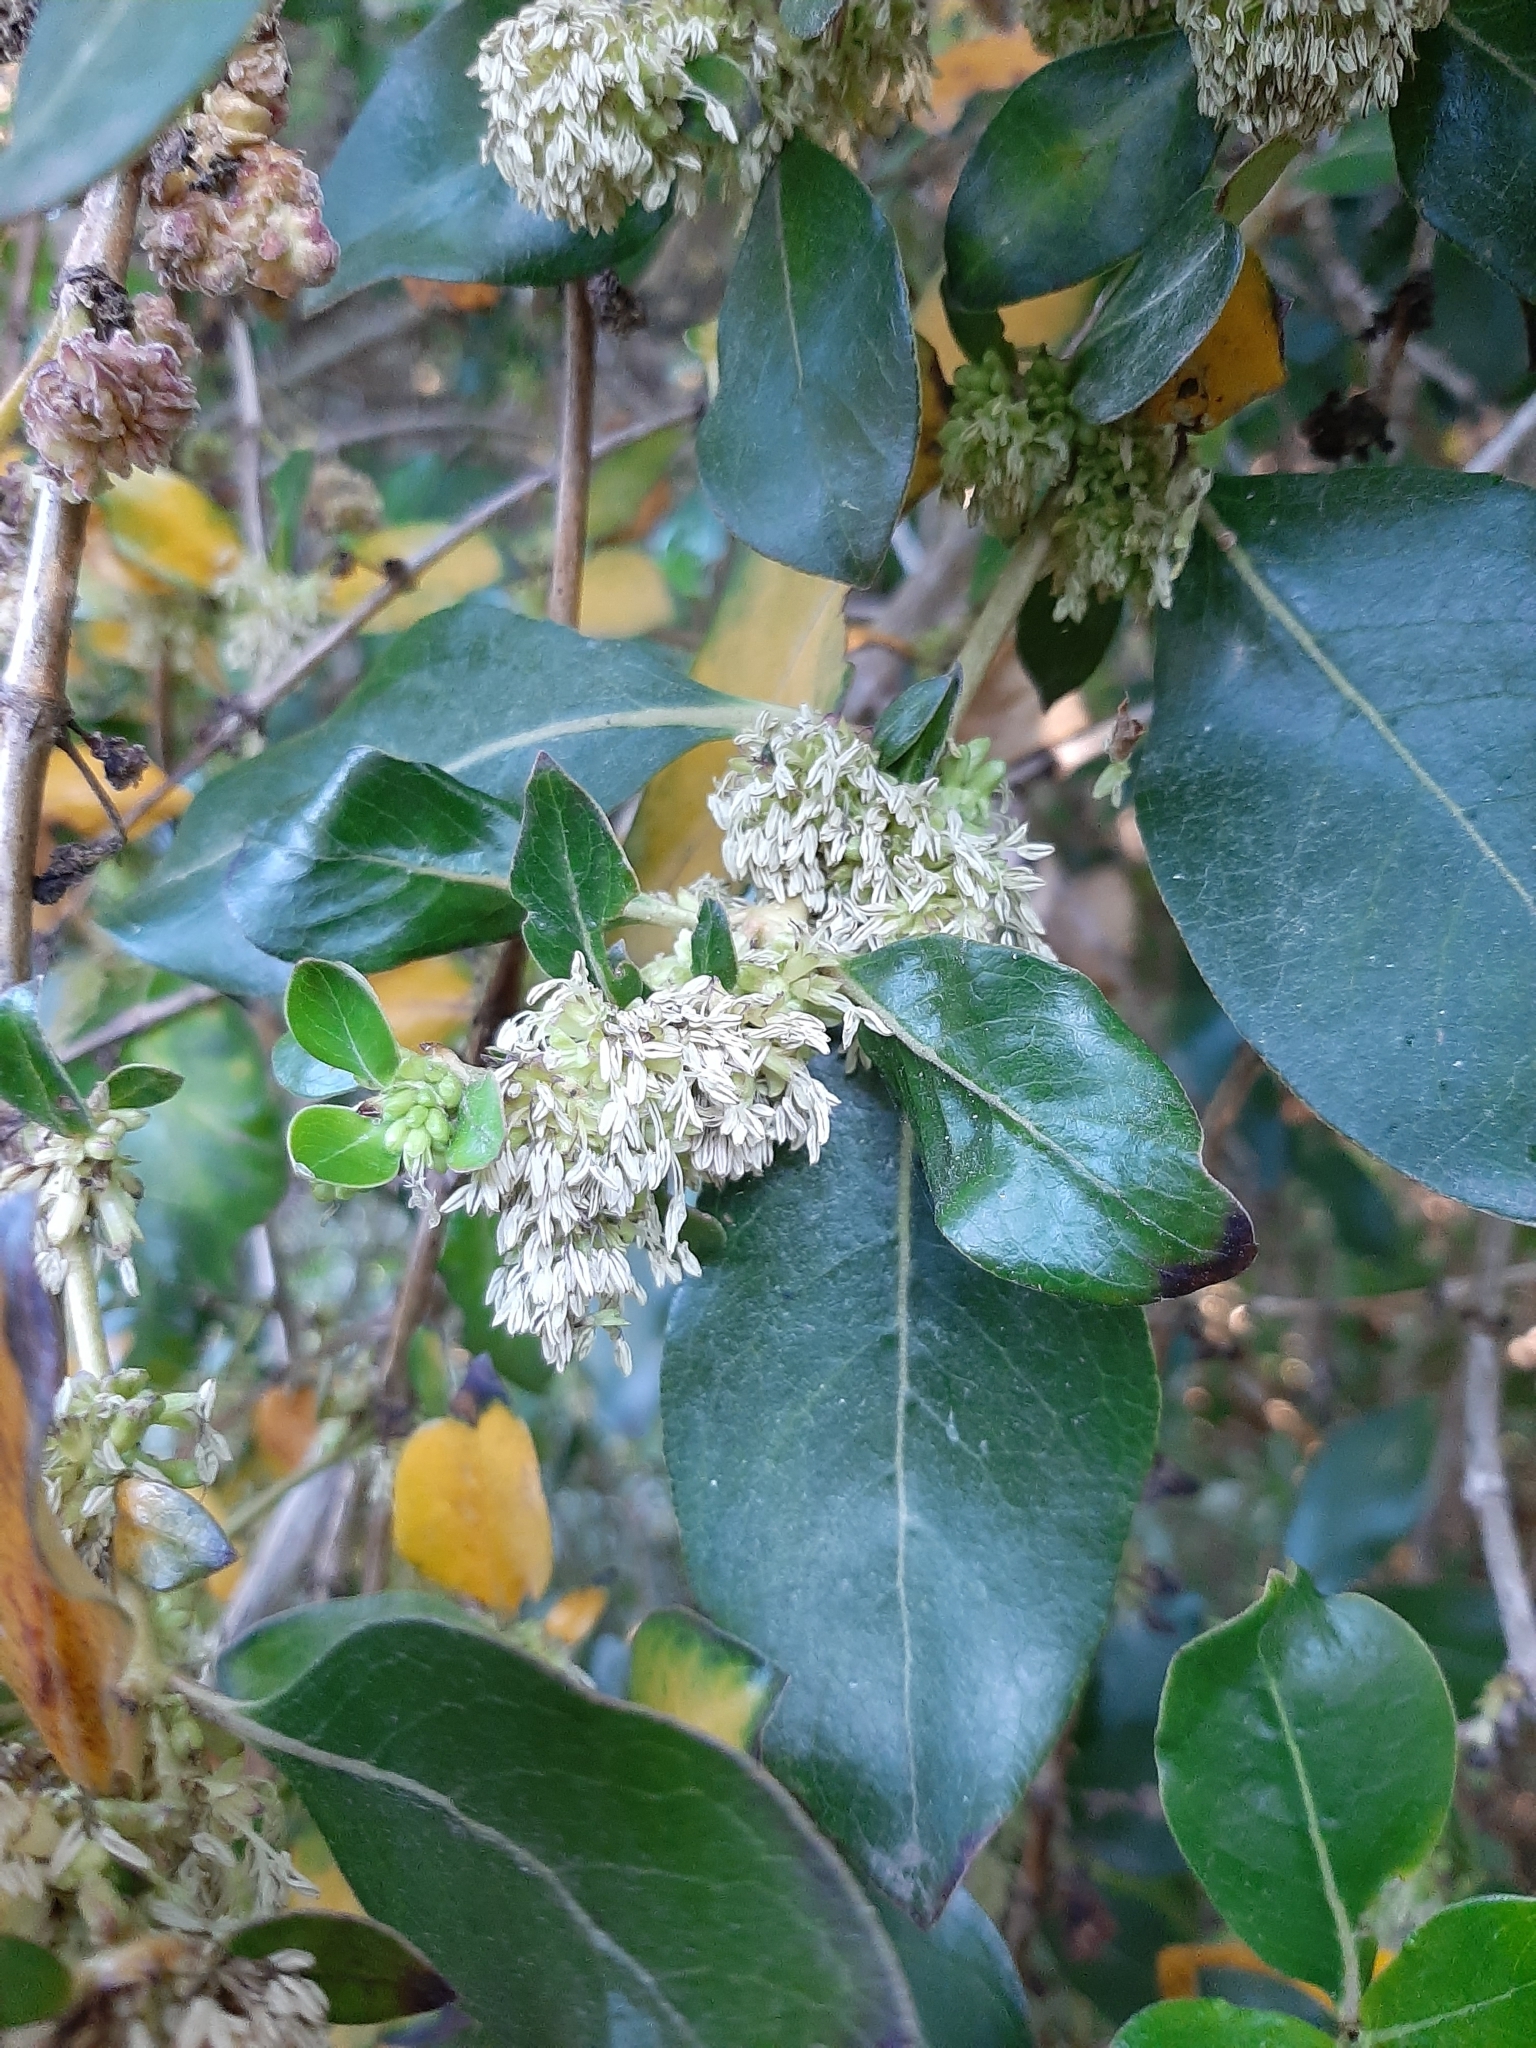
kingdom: Plantae
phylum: Tracheophyta
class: Magnoliopsida
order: Gentianales
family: Rubiaceae
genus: Coprosma
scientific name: Coprosma robusta
